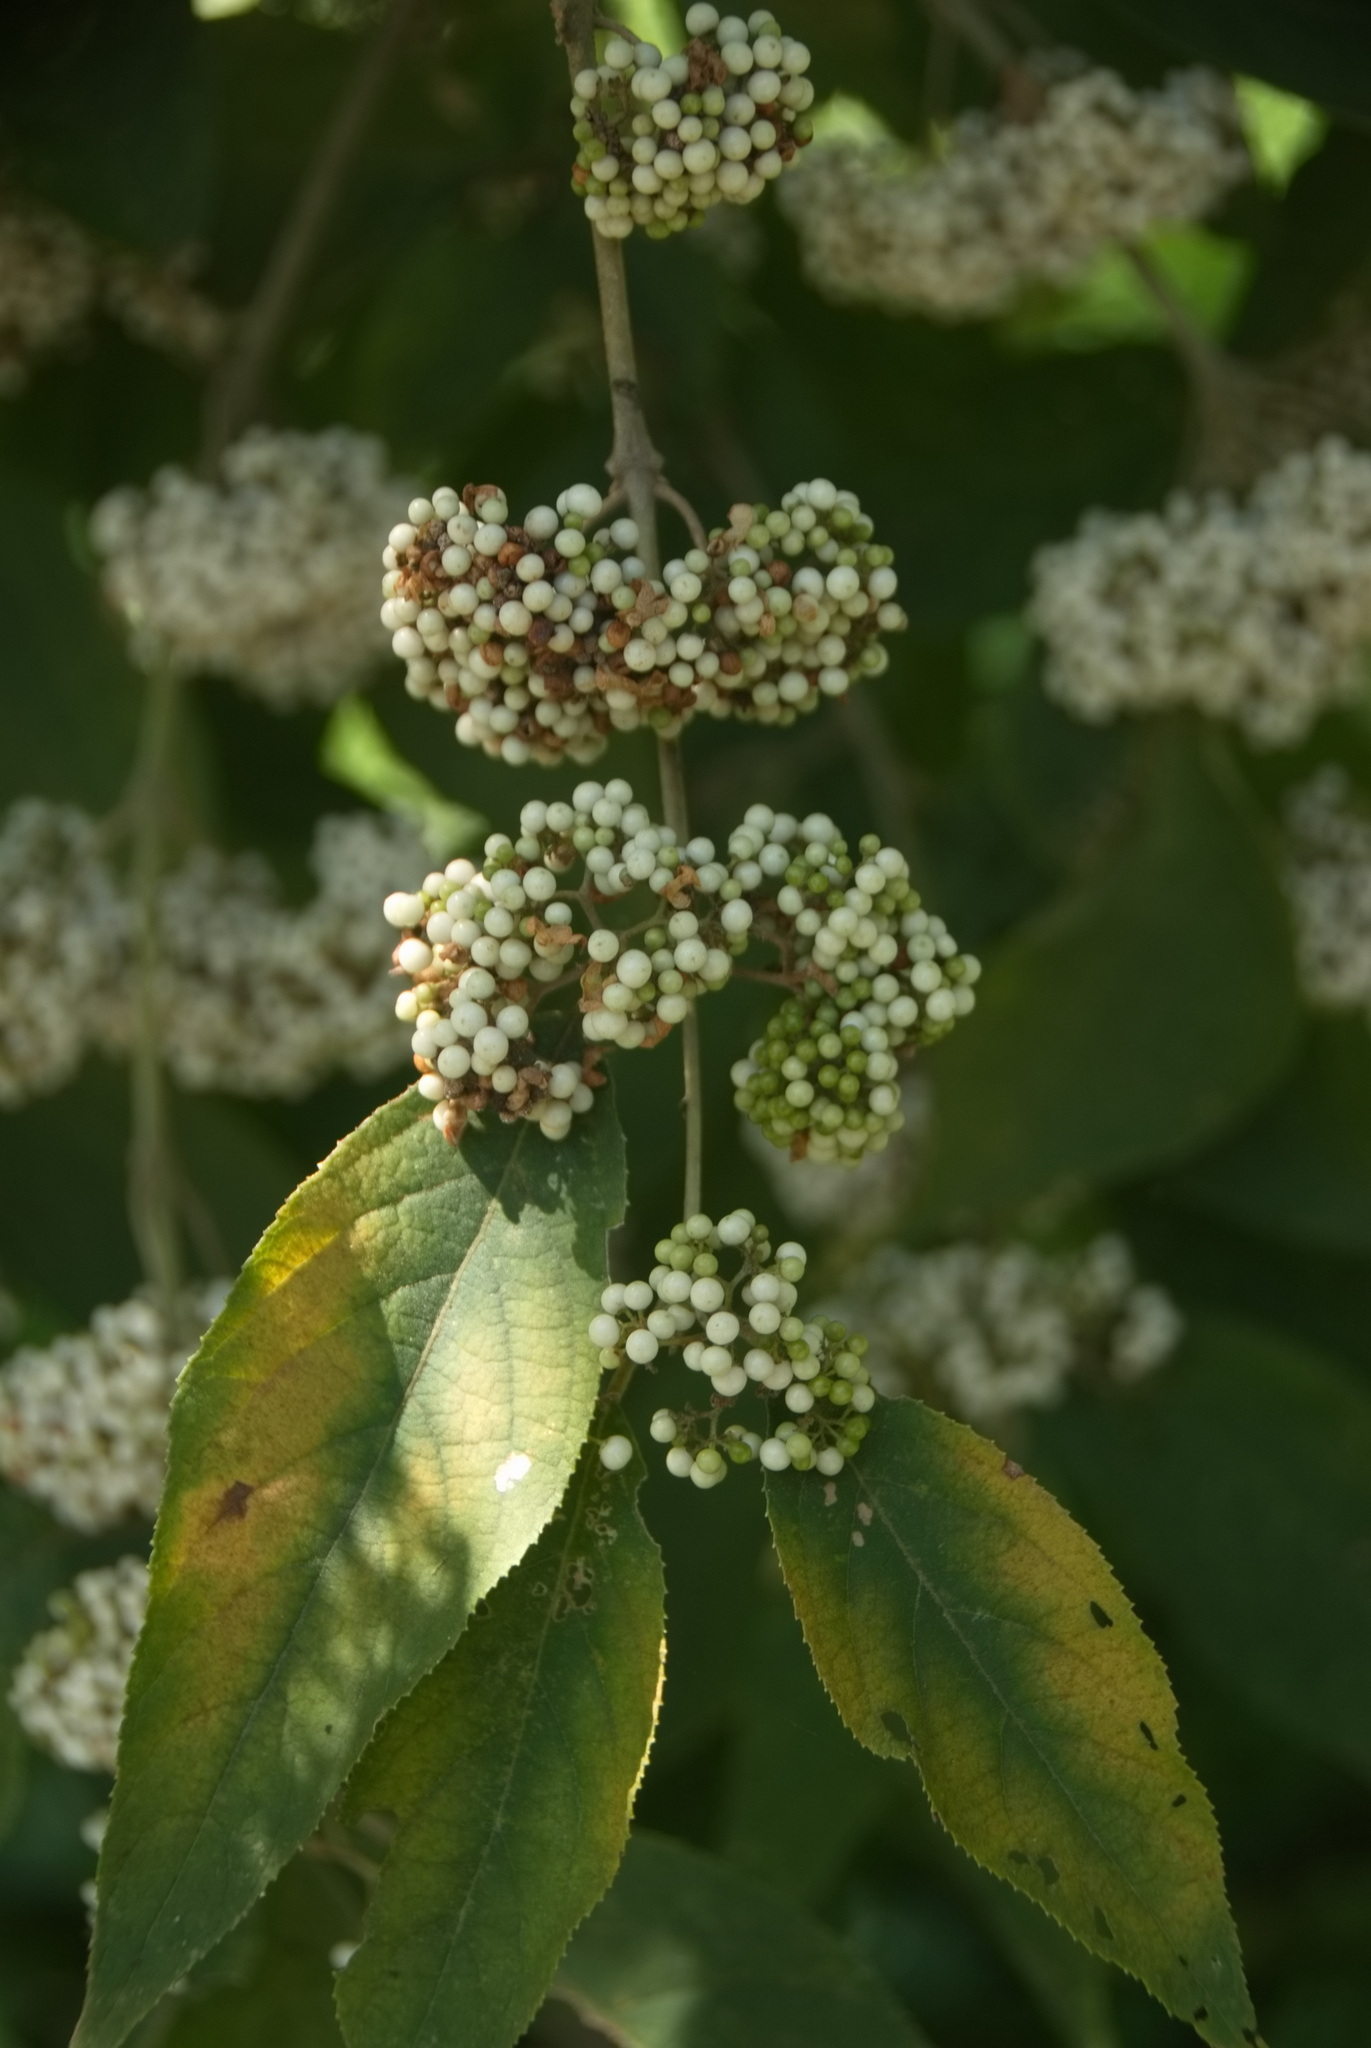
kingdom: Plantae
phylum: Tracheophyta
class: Magnoliopsida
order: Lamiales
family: Lamiaceae
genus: Callicarpa
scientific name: Callicarpa pedunculata
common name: Velvetleaf
